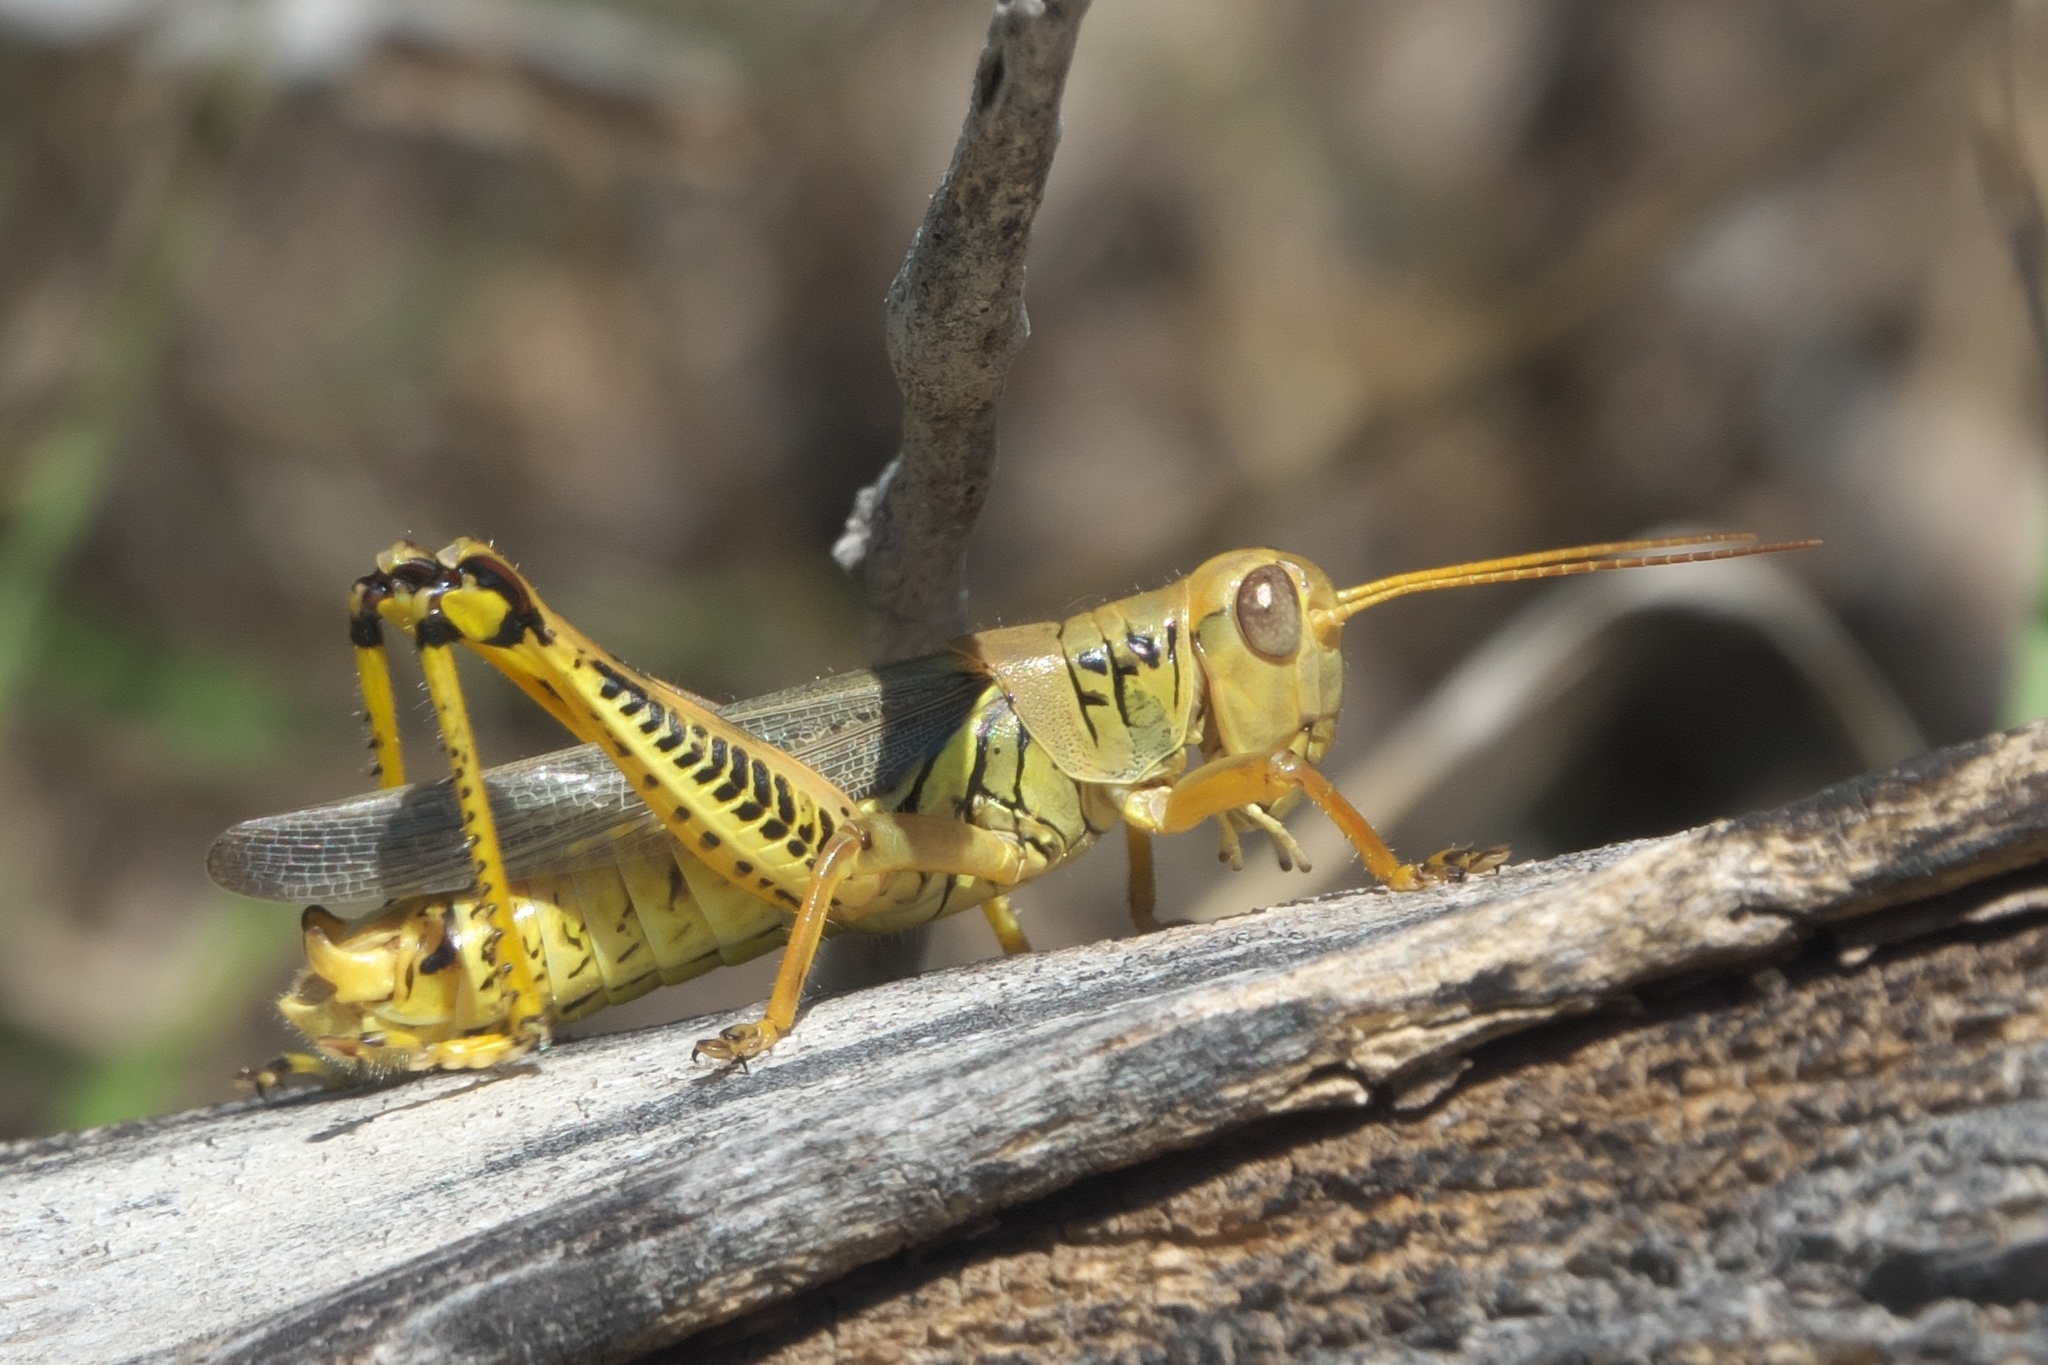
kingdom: Animalia
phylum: Arthropoda
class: Insecta
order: Orthoptera
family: Acrididae
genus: Melanoplus
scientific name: Melanoplus differentialis
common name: Differential grasshopper
